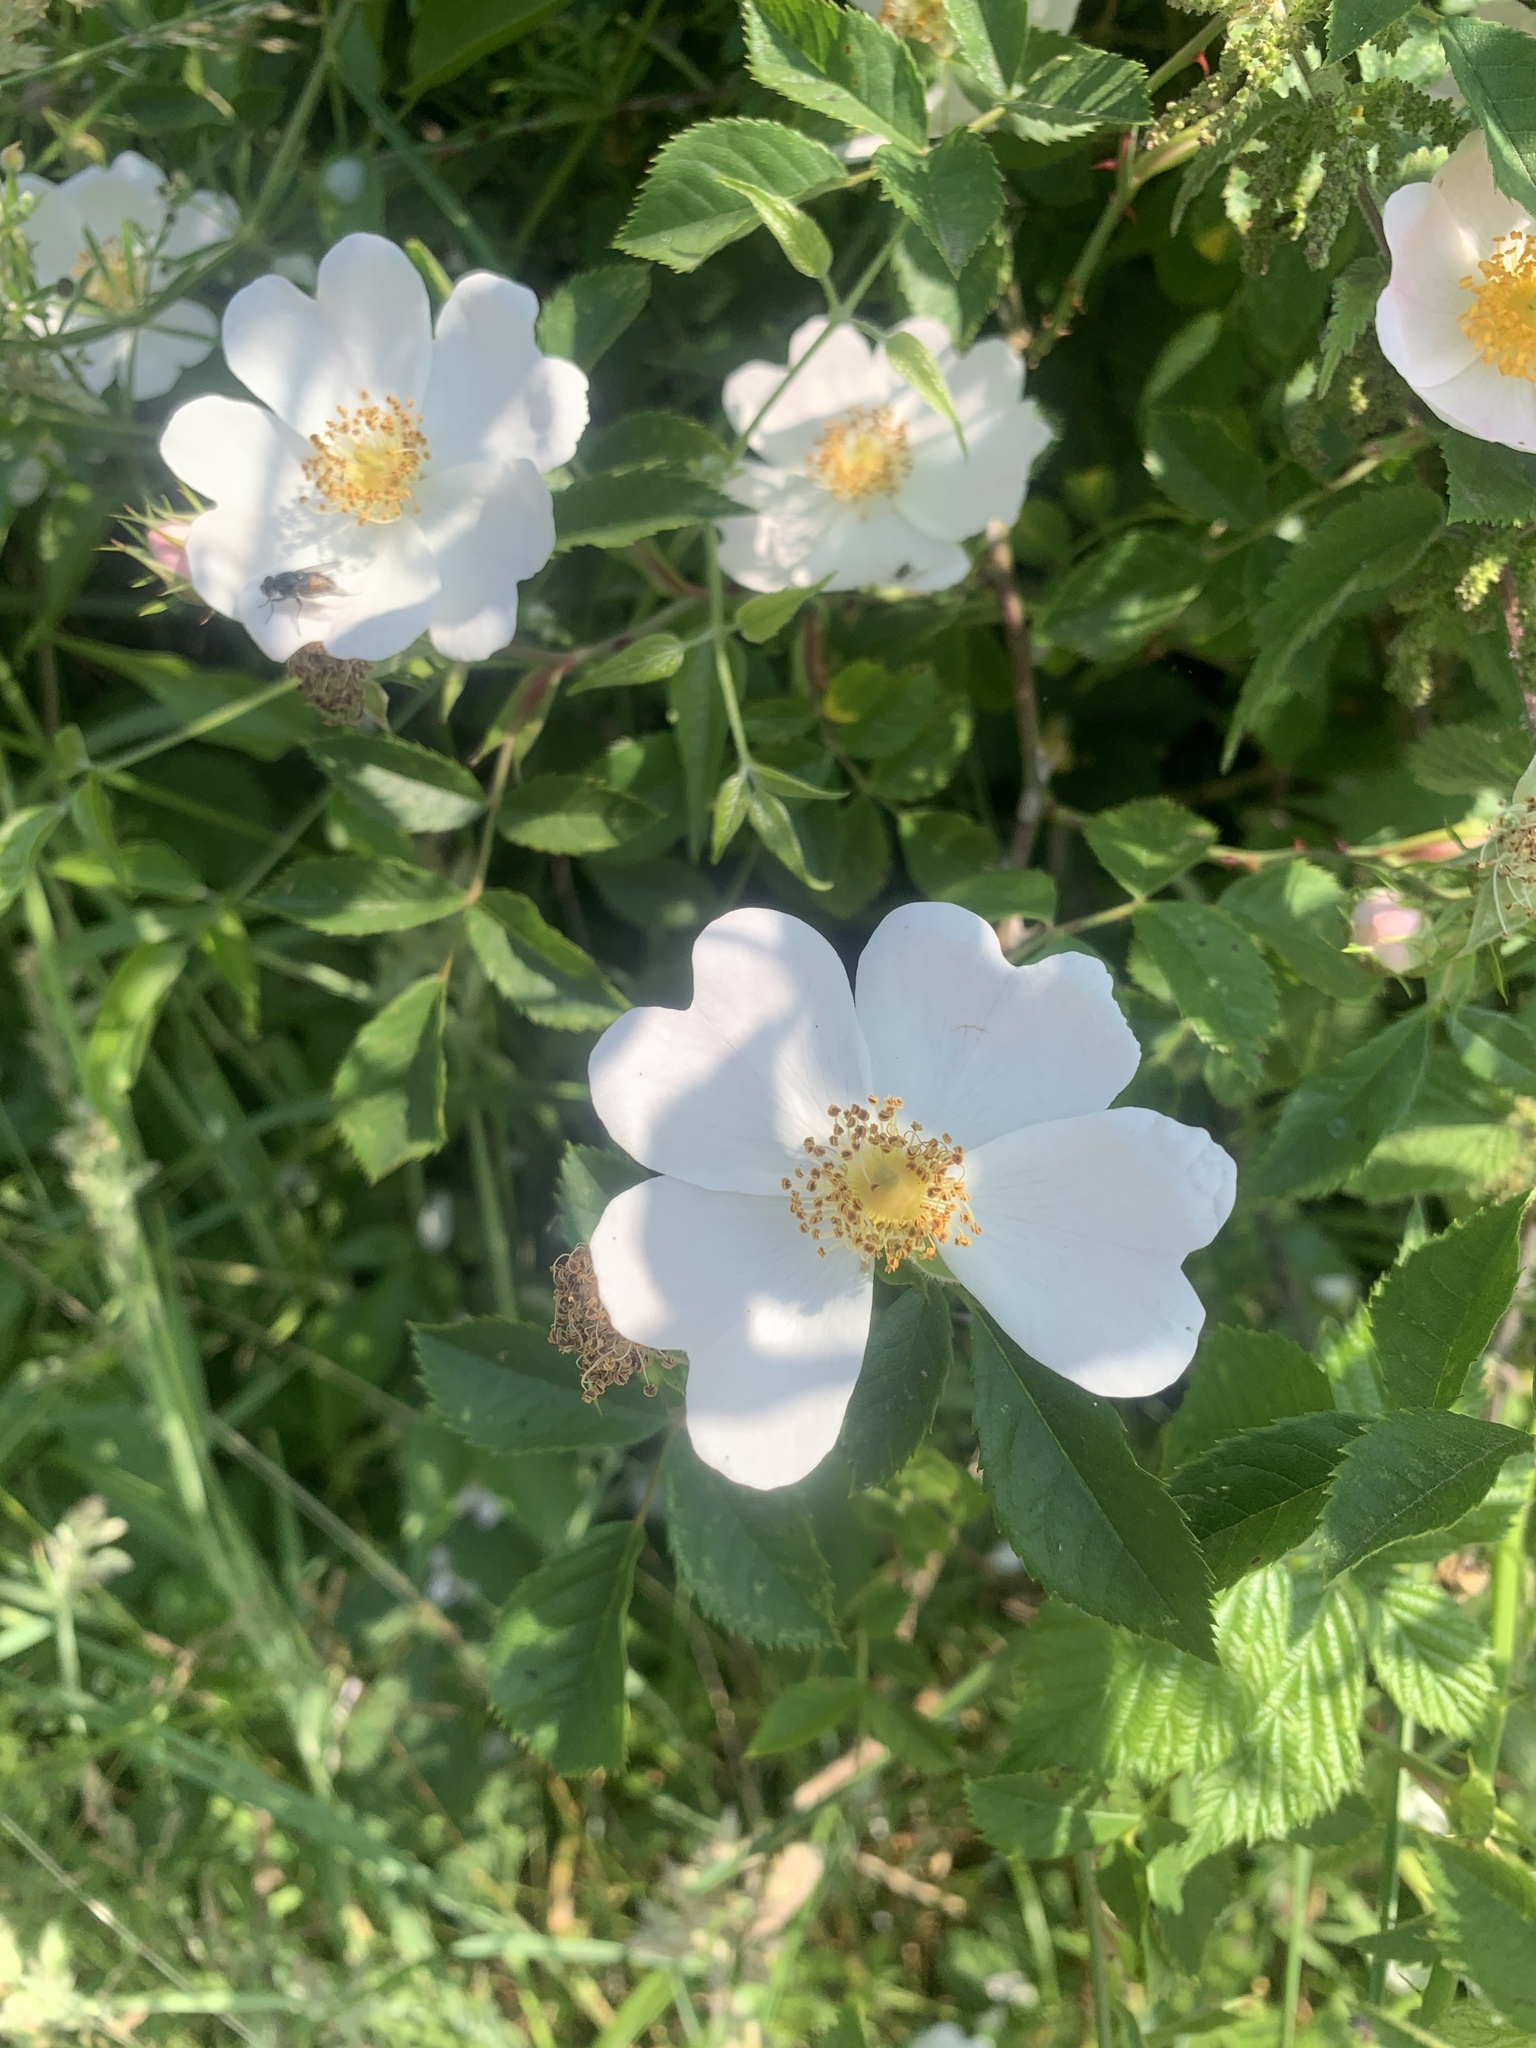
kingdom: Plantae
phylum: Tracheophyta
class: Magnoliopsida
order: Rosales
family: Rosaceae
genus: Rosa
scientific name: Rosa canina
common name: Dog rose
